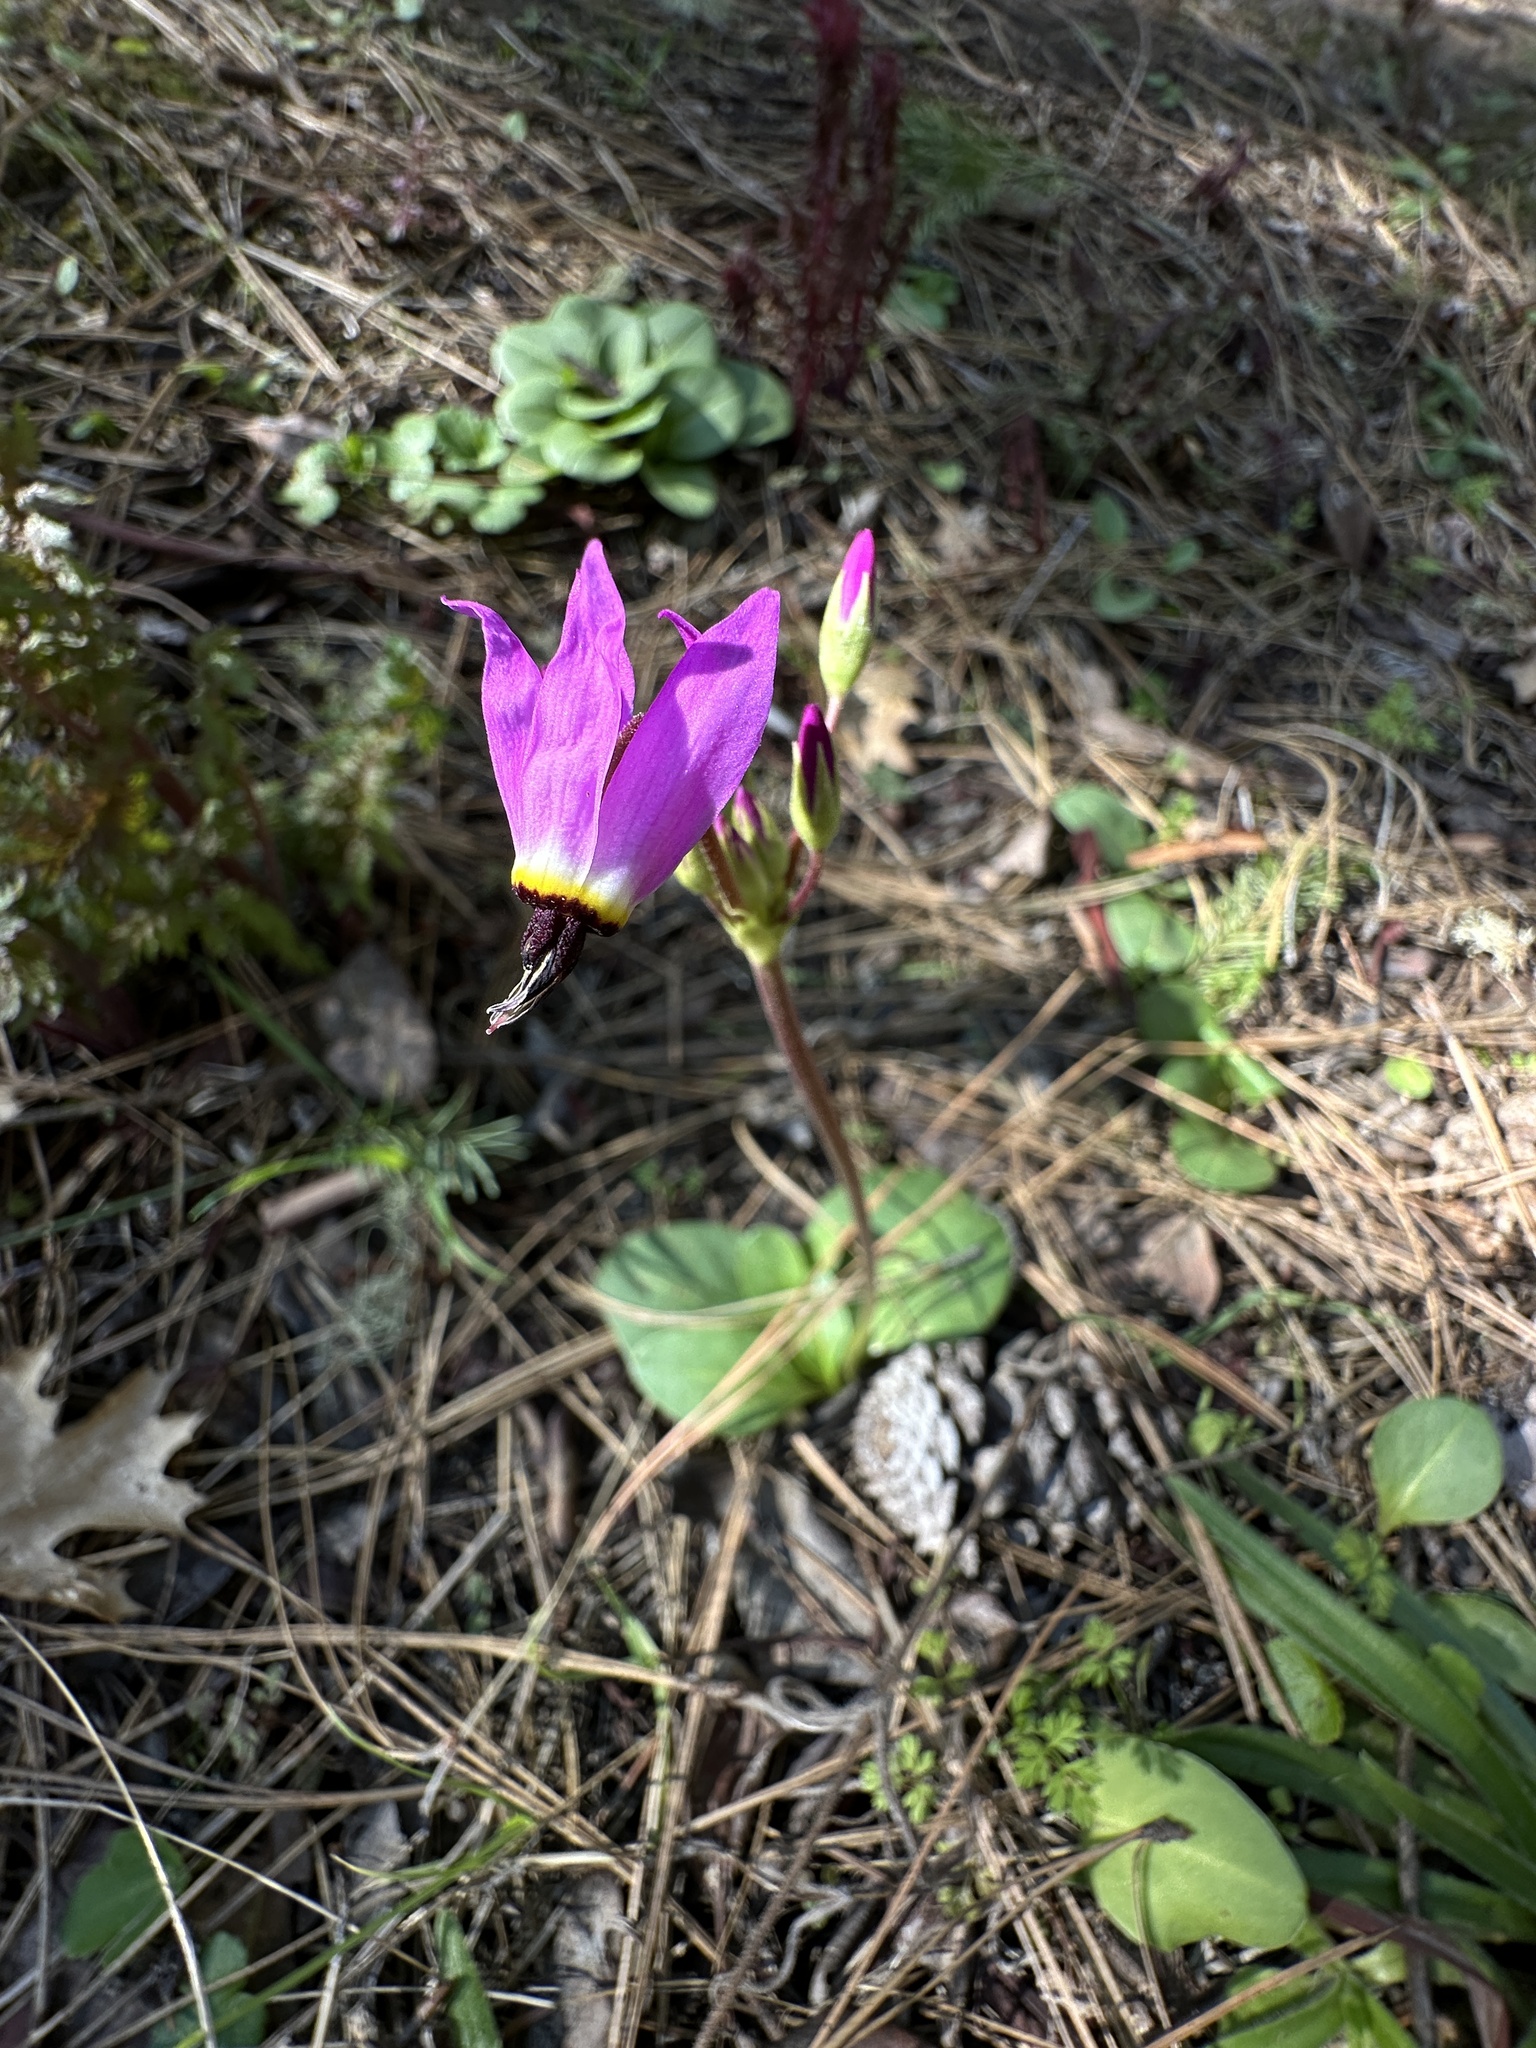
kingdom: Plantae
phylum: Tracheophyta
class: Magnoliopsida
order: Ericales
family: Primulaceae
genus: Dodecatheon
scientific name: Dodecatheon hendersonii
